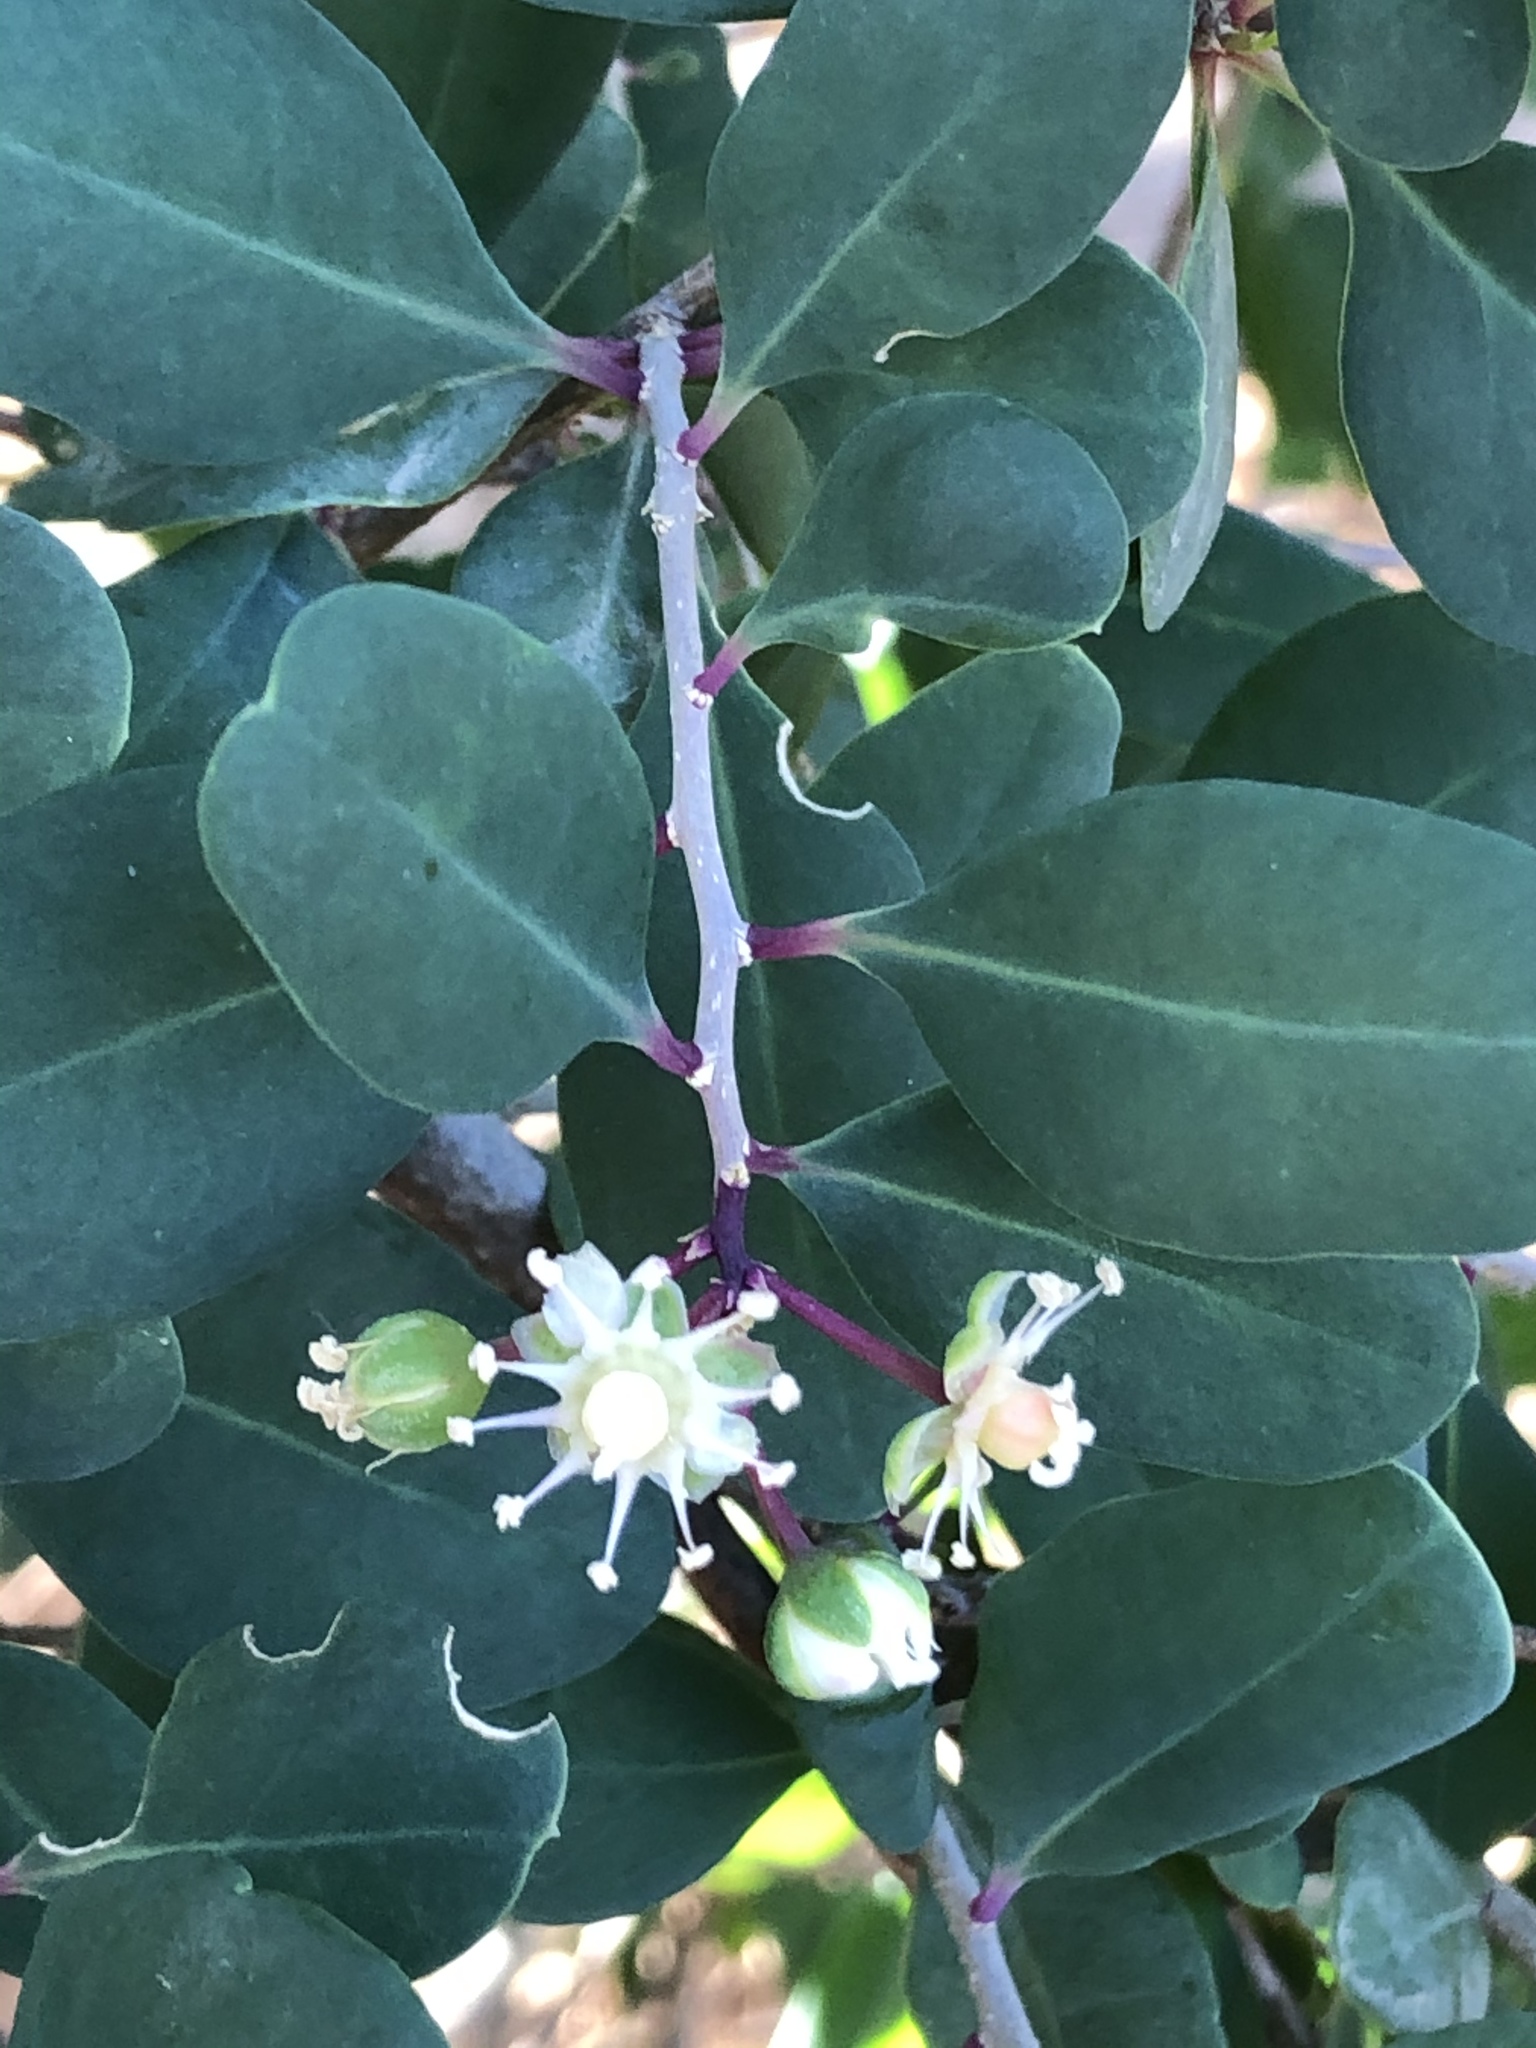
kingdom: Plantae
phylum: Tracheophyta
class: Magnoliopsida
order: Caryophyllales
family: Stegnospermataceae
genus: Stegnosperma
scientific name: Stegnosperma halimifolium
